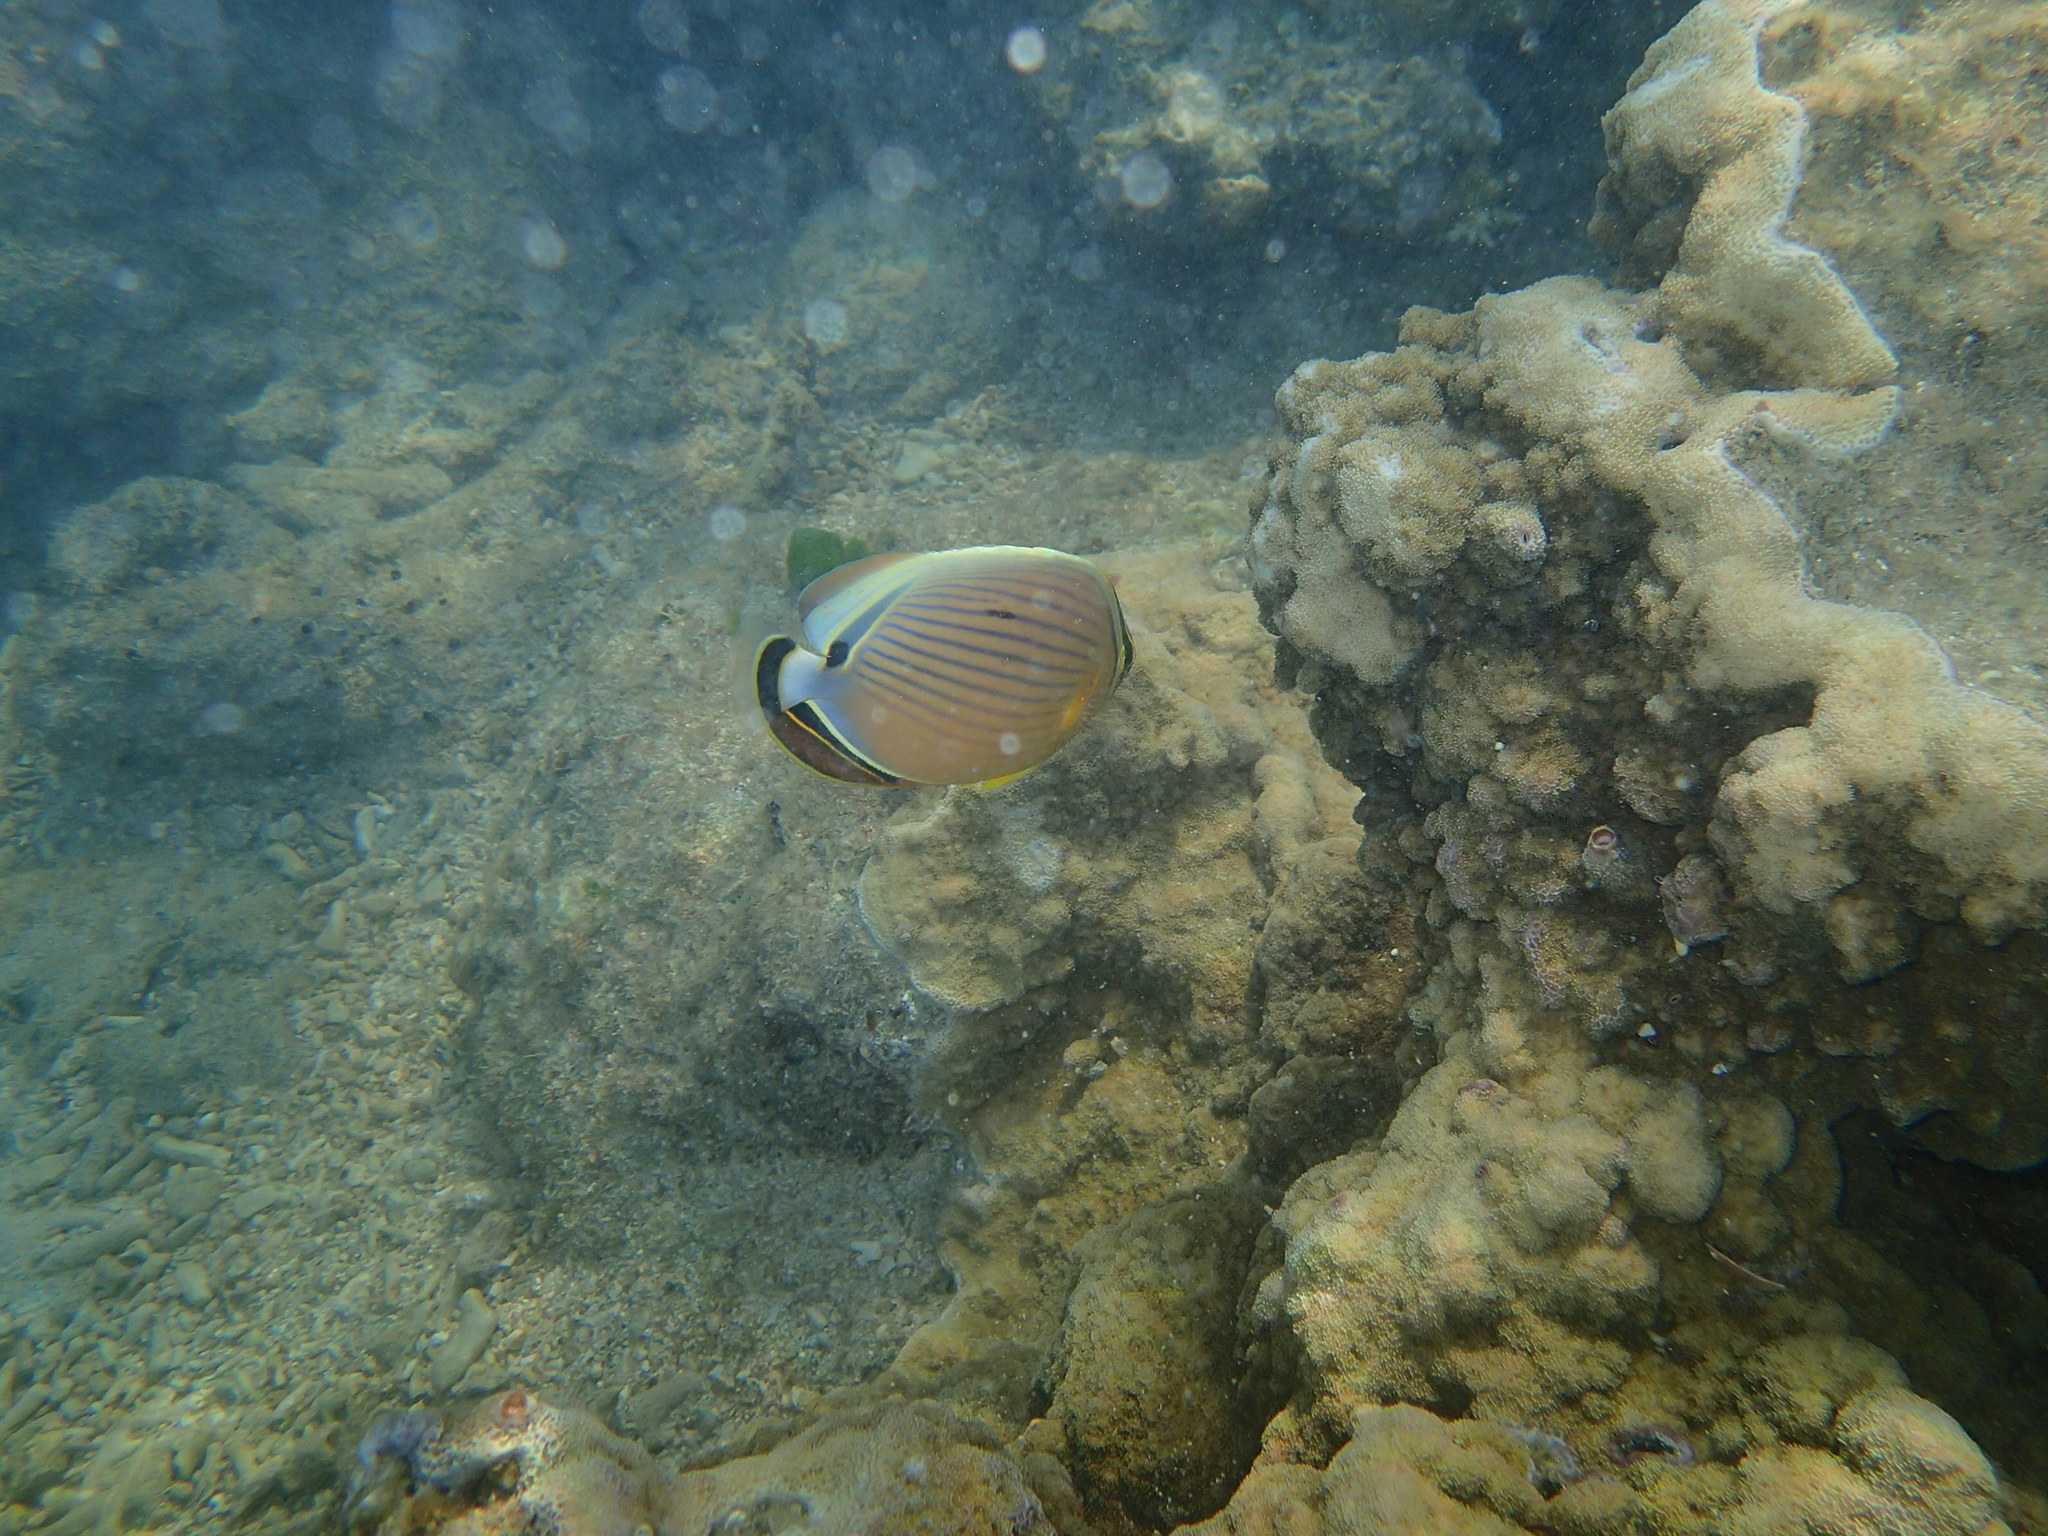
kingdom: Animalia
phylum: Chordata
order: Perciformes
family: Chaetodontidae
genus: Chaetodon
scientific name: Chaetodon lunulatus
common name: Redfin butterflyfish
